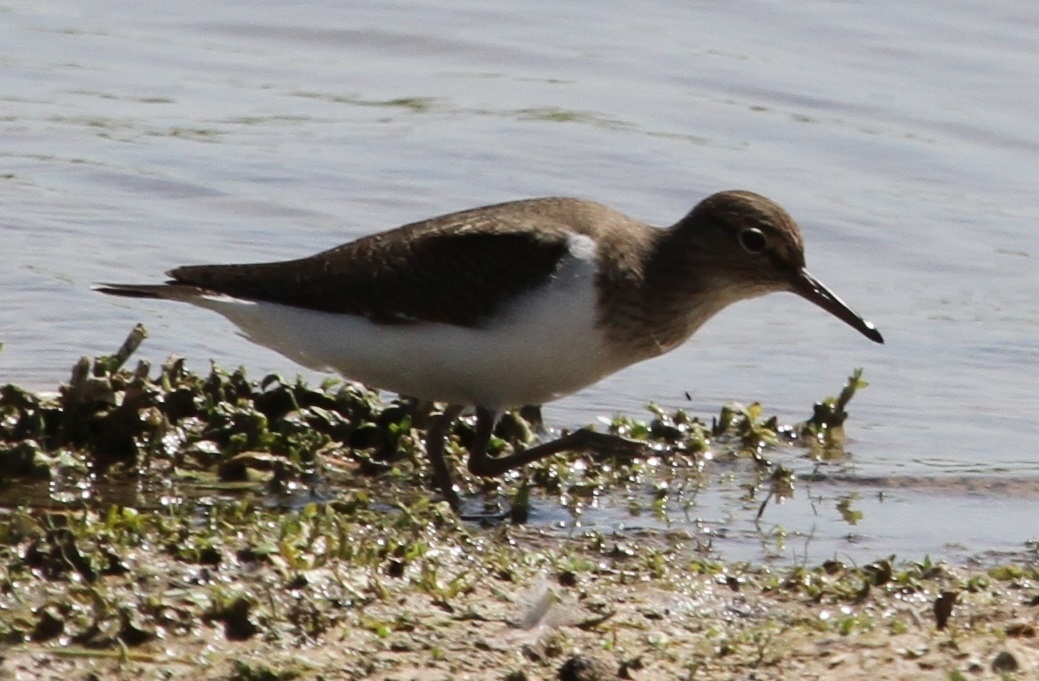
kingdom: Animalia
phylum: Chordata
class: Aves
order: Charadriiformes
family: Scolopacidae
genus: Actitis
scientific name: Actitis hypoleucos
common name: Common sandpiper
